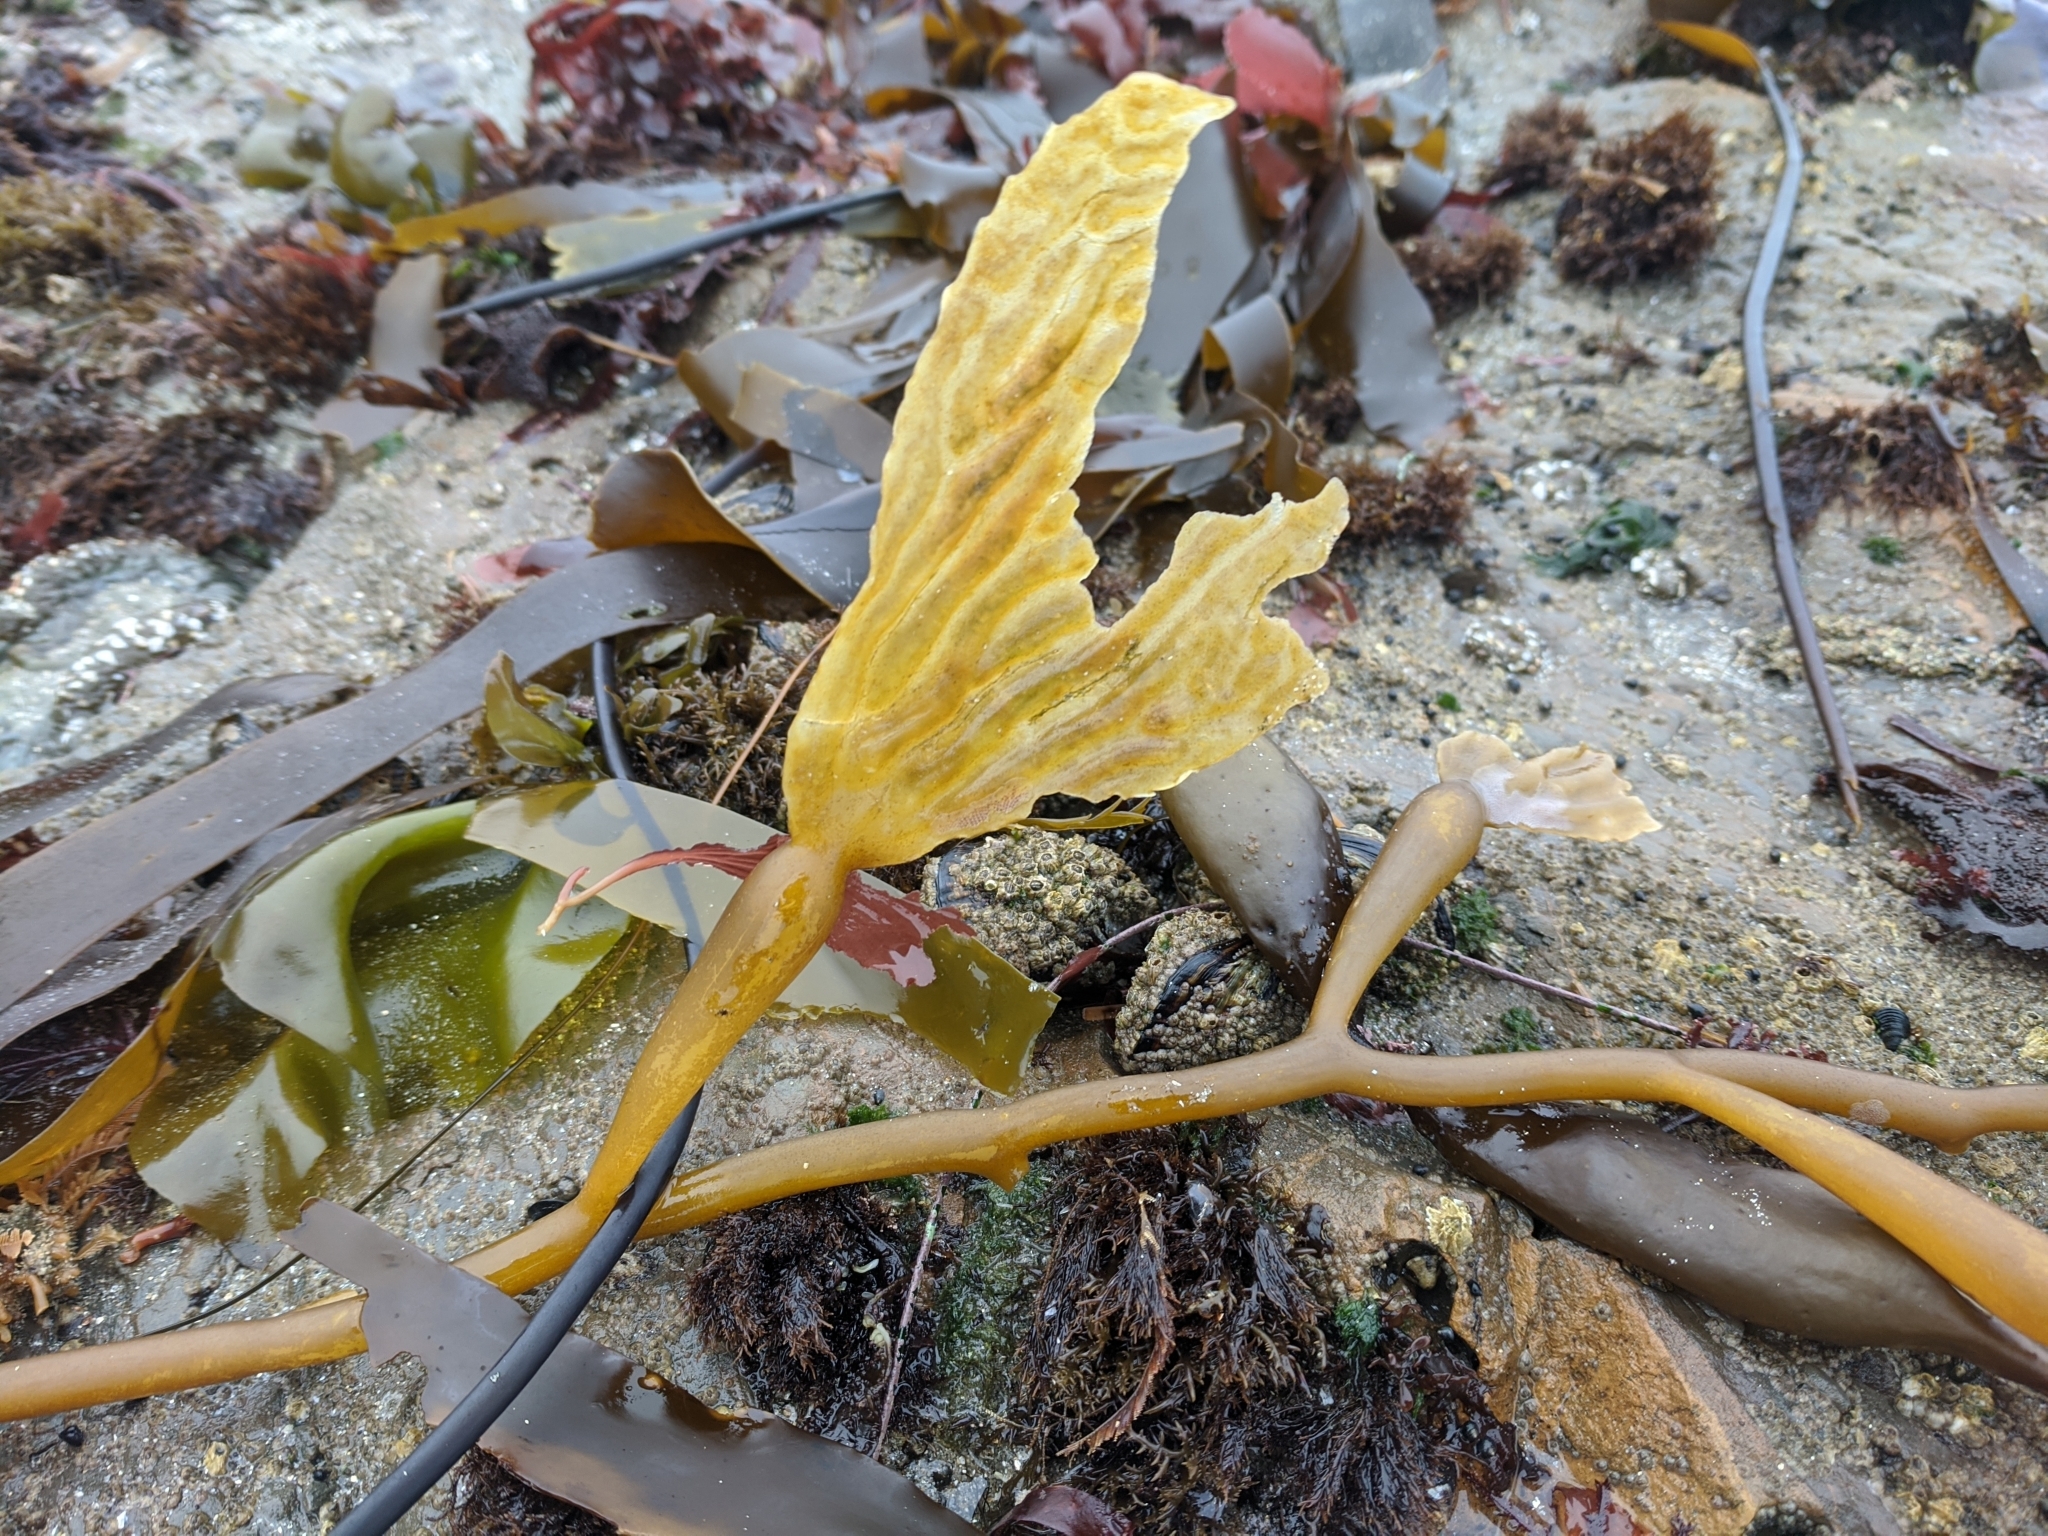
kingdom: Chromista
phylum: Ochrophyta
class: Phaeophyceae
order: Laminariales
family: Laminariaceae
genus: Macrocystis
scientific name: Macrocystis pyrifera
